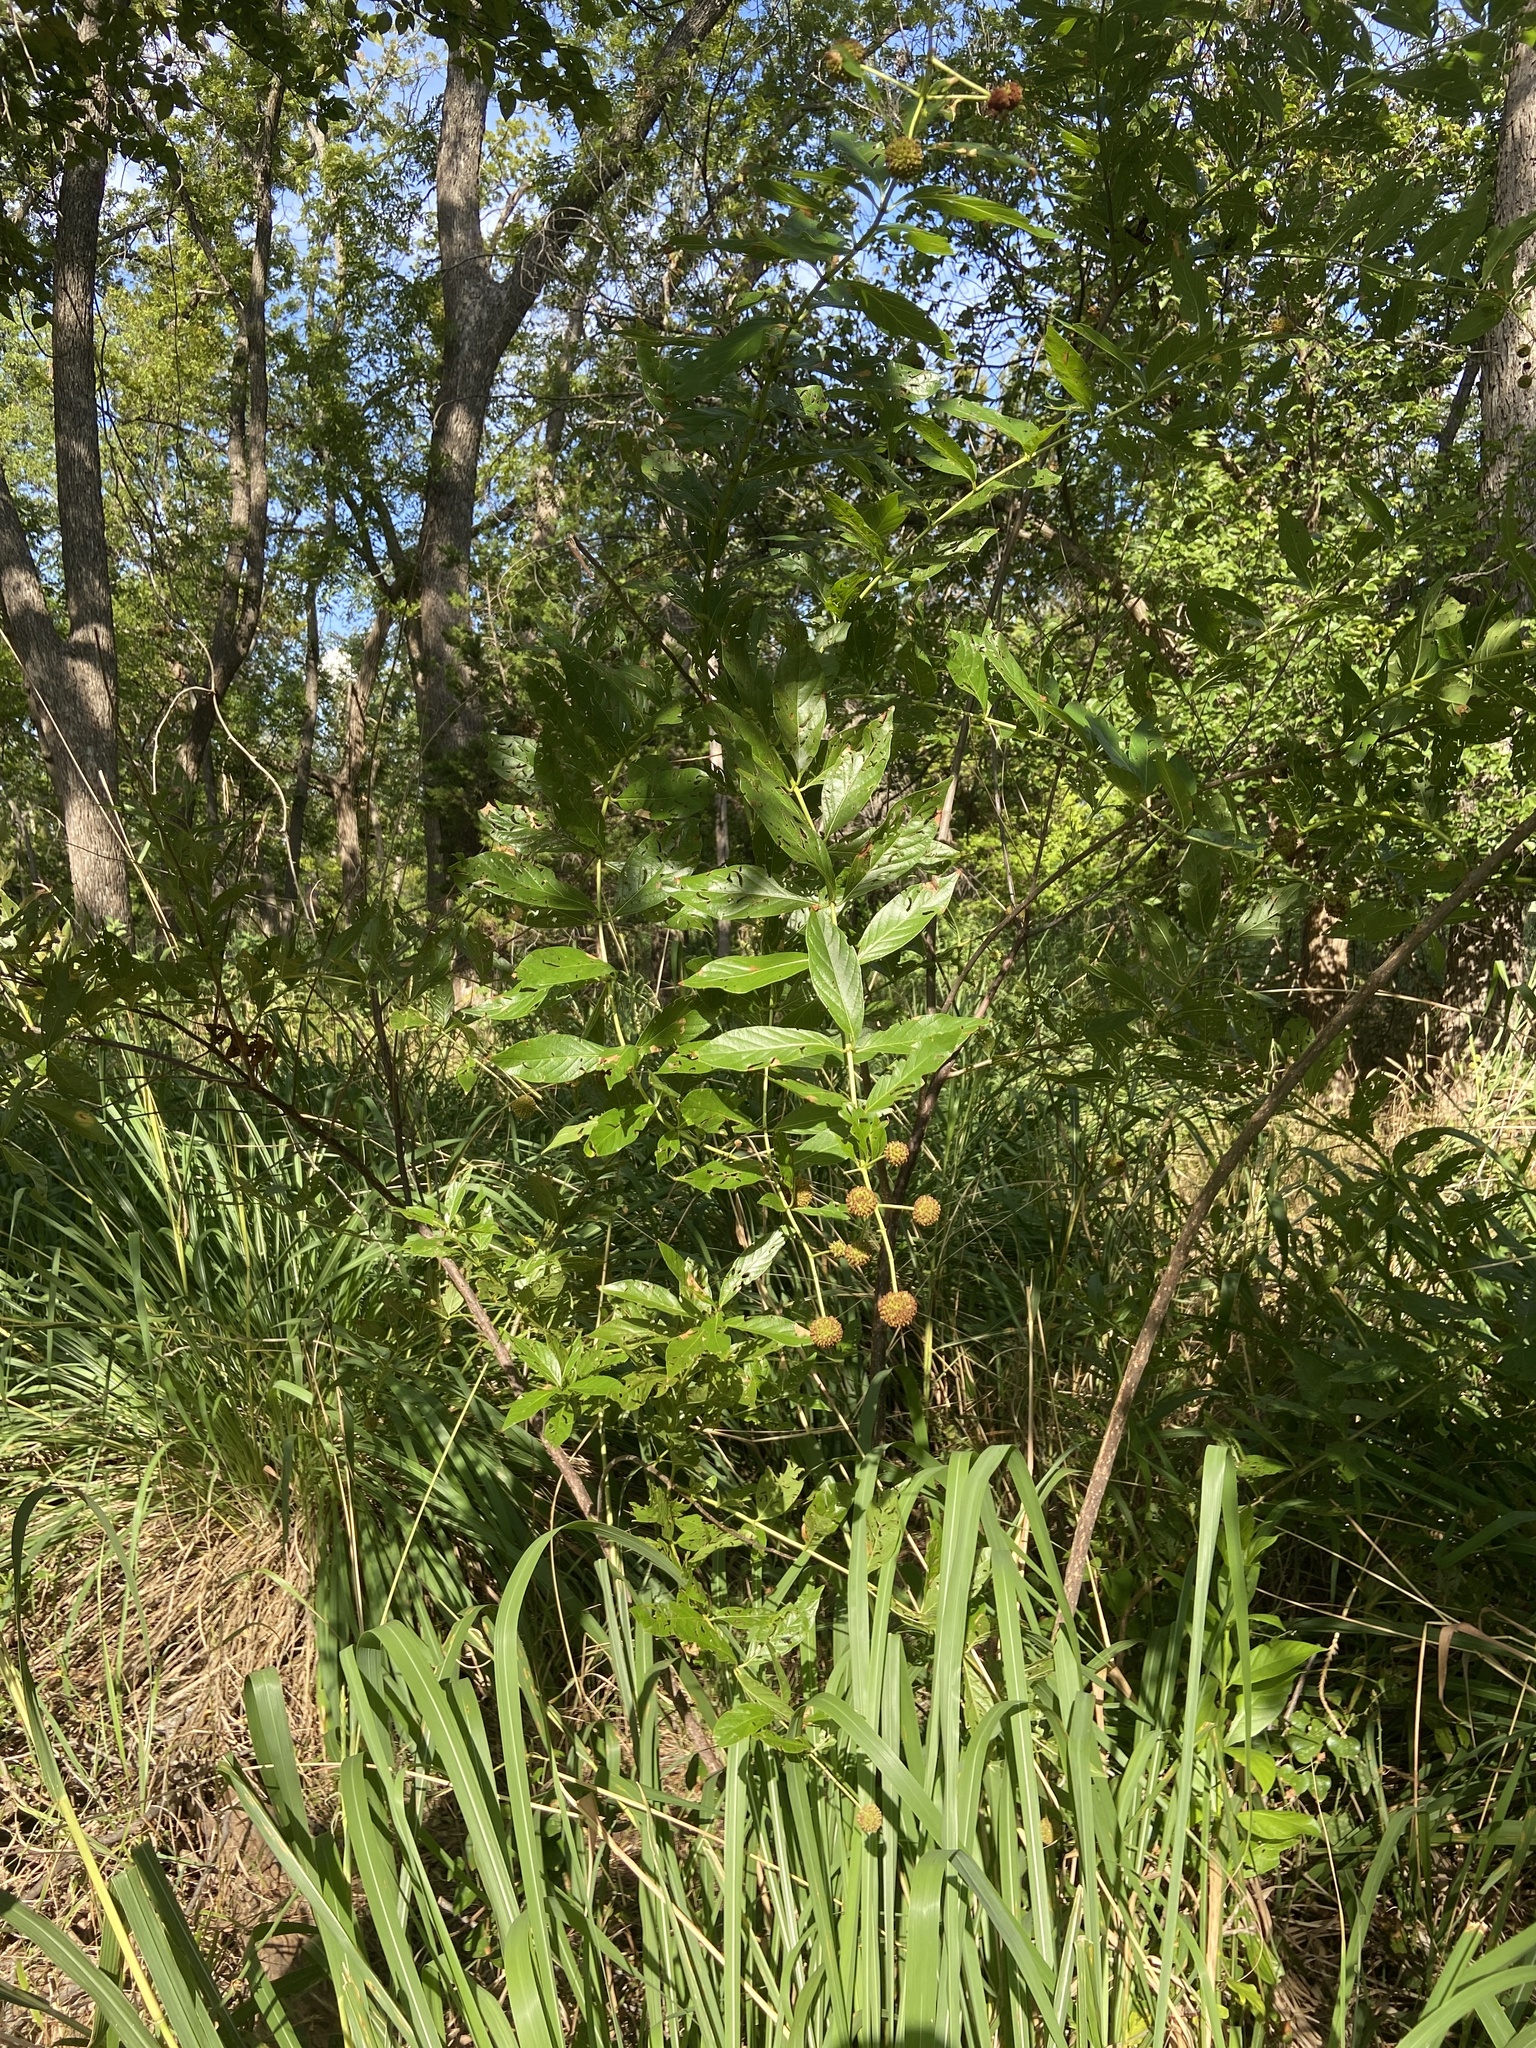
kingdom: Plantae
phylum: Tracheophyta
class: Magnoliopsida
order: Gentianales
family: Rubiaceae
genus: Cephalanthus
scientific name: Cephalanthus occidentalis
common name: Button-willow
